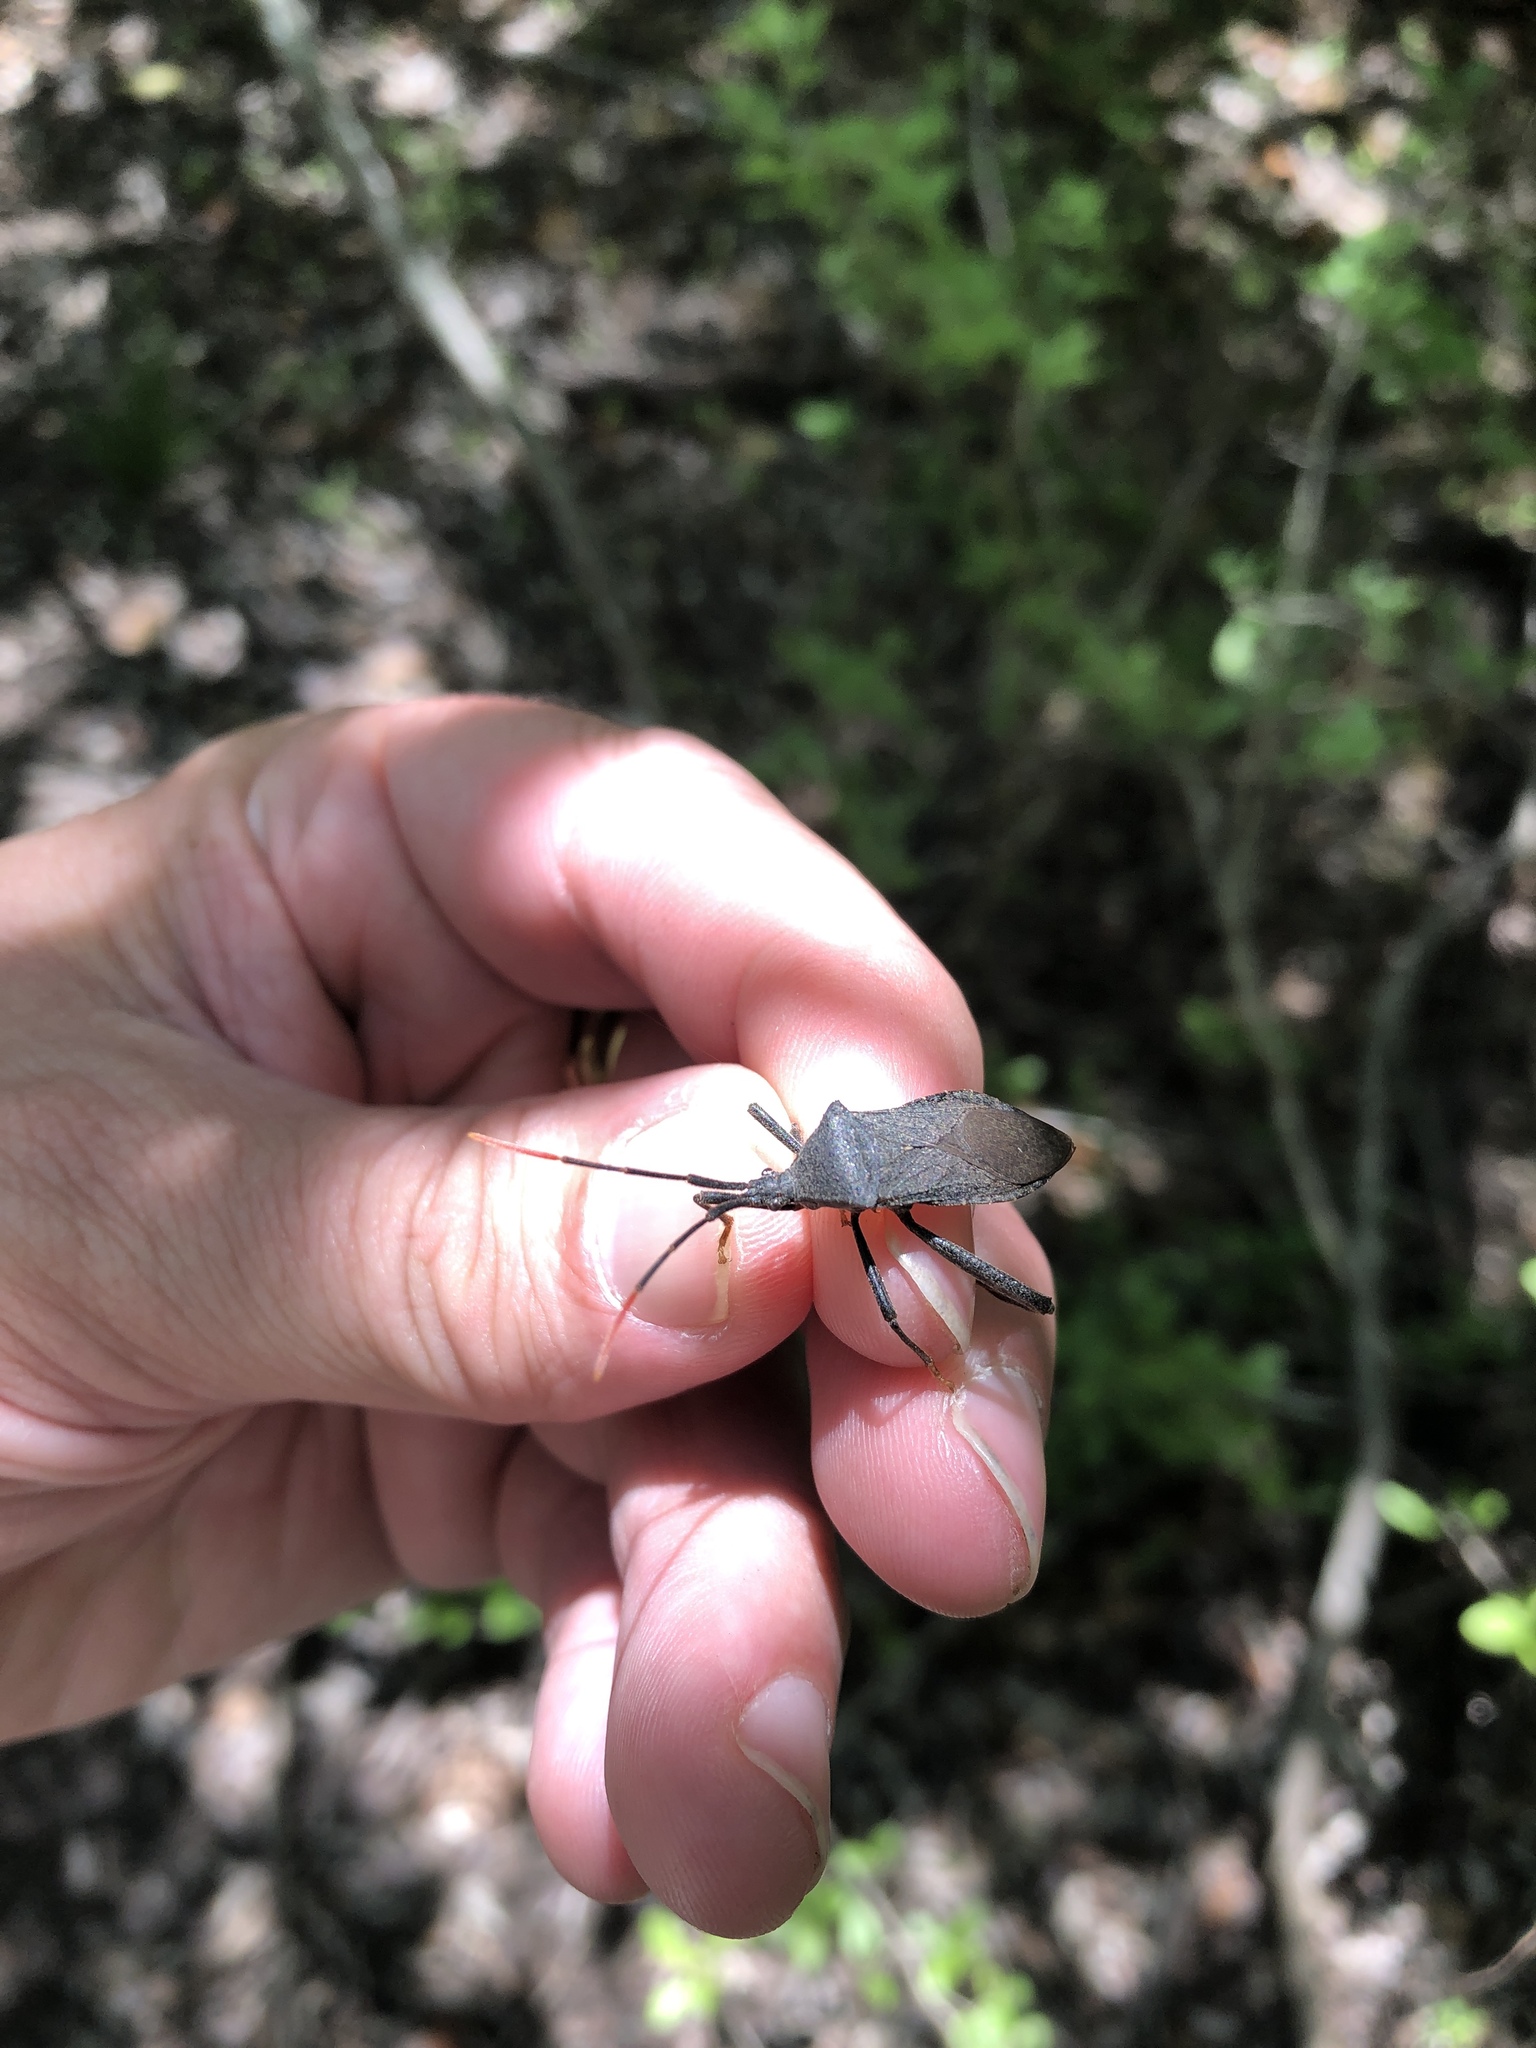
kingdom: Animalia
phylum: Arthropoda
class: Insecta
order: Hemiptera
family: Coreidae
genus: Acanthocephala
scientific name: Acanthocephala terminalis
